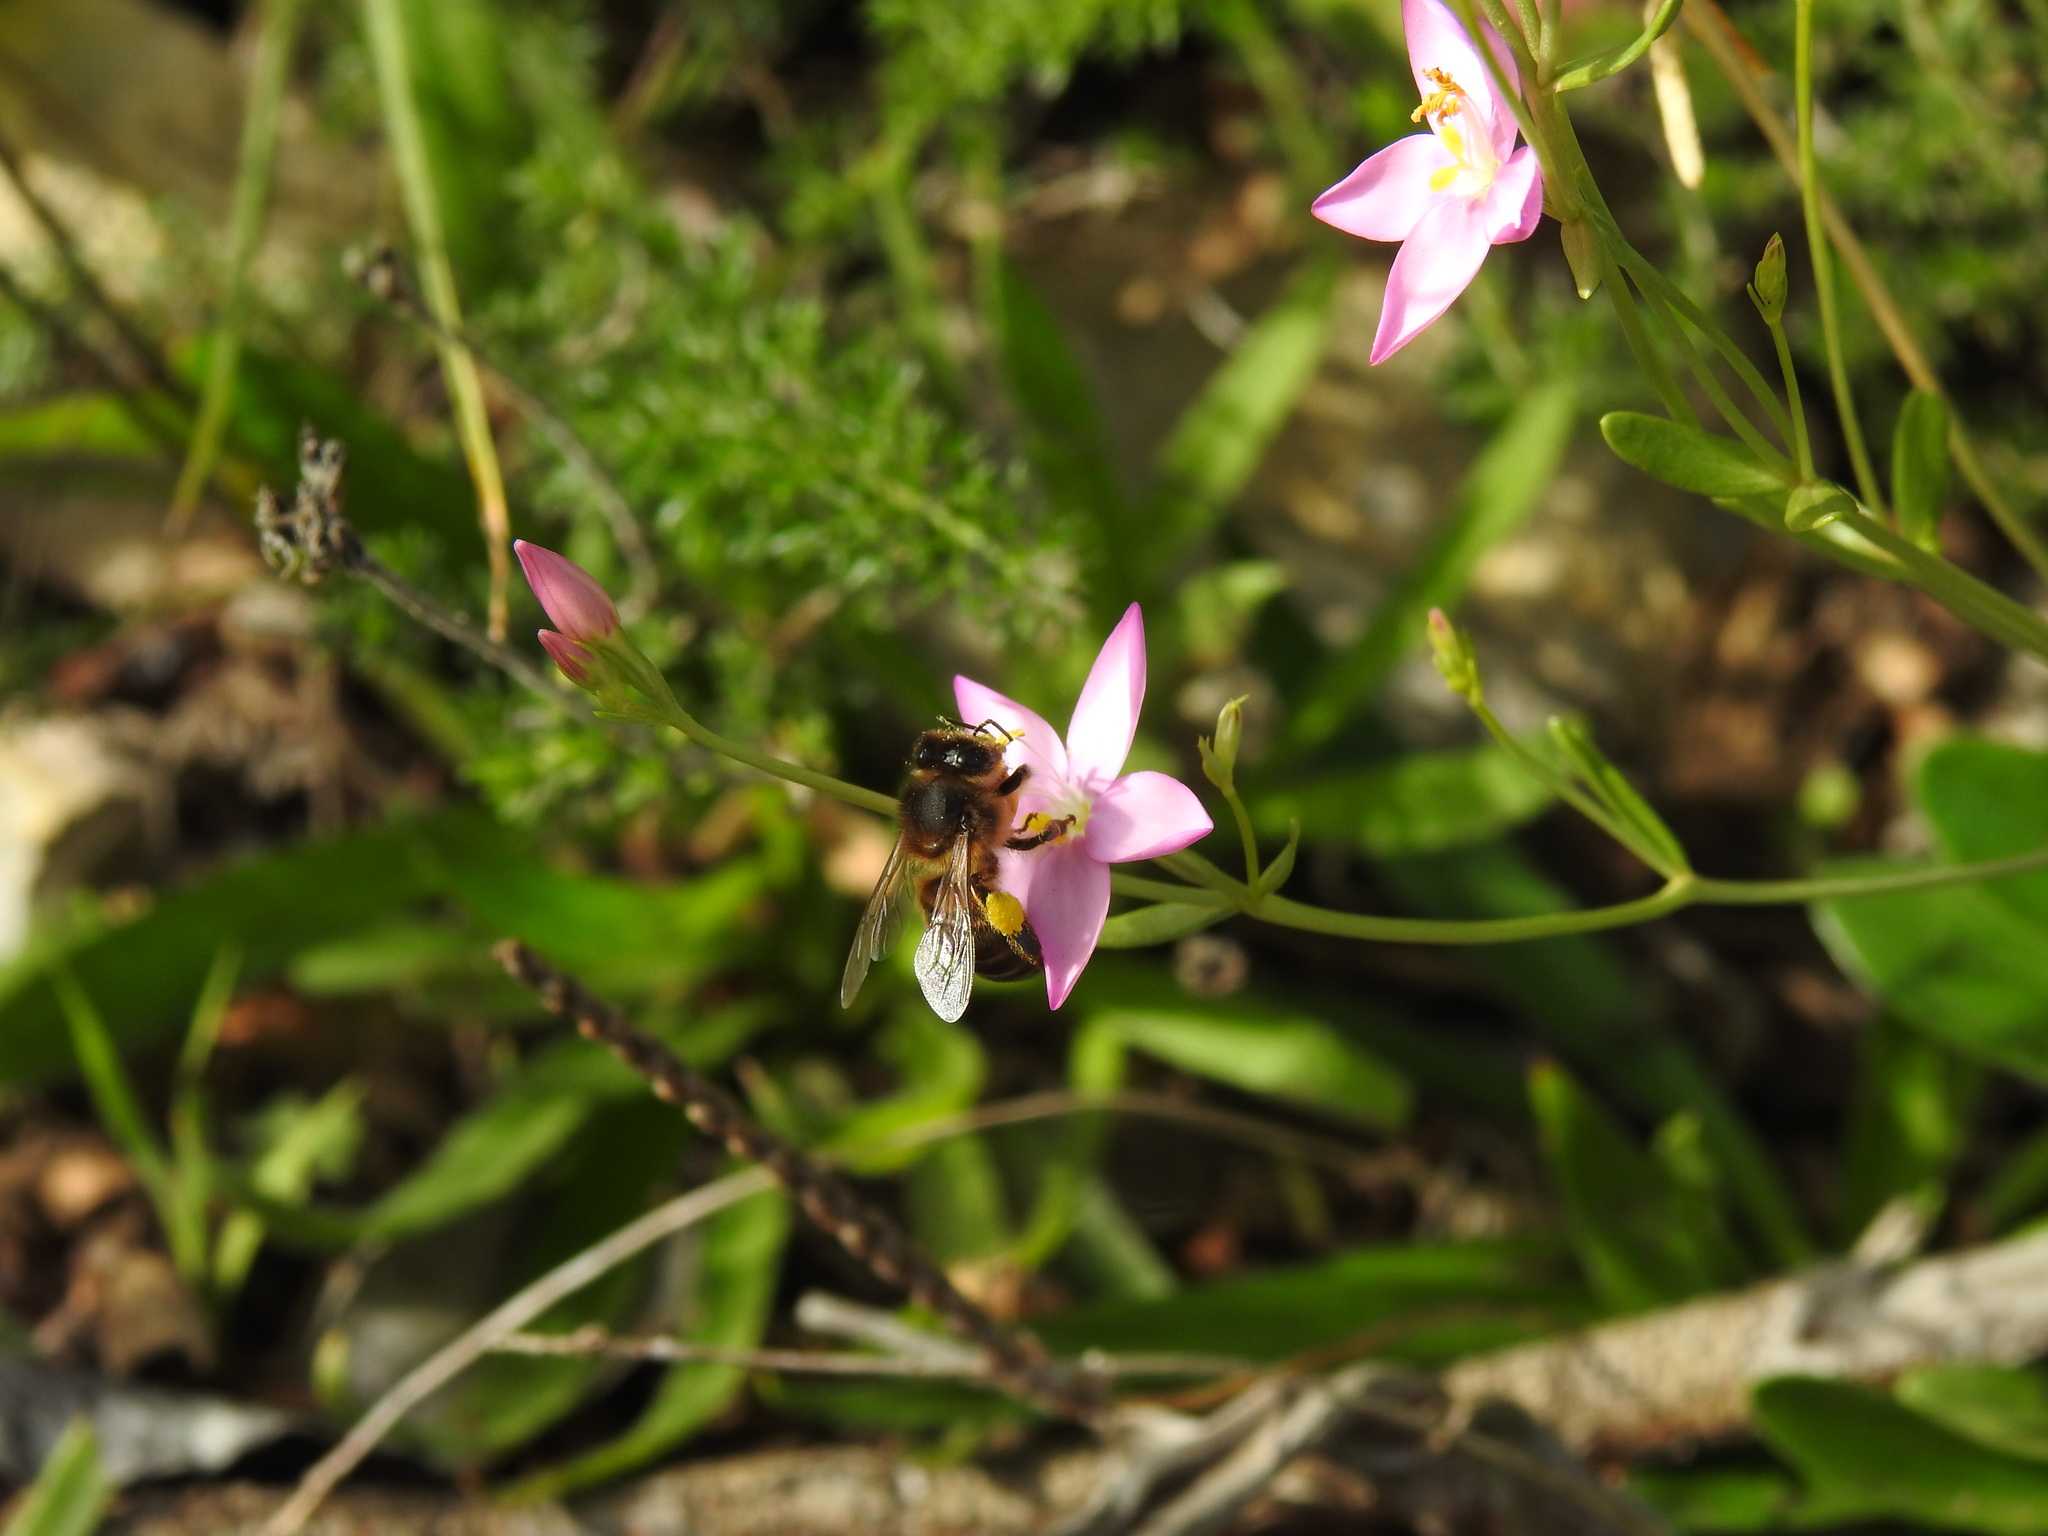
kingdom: Animalia
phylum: Arthropoda
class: Insecta
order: Hymenoptera
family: Apidae
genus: Apis
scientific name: Apis mellifera
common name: Honey bee
